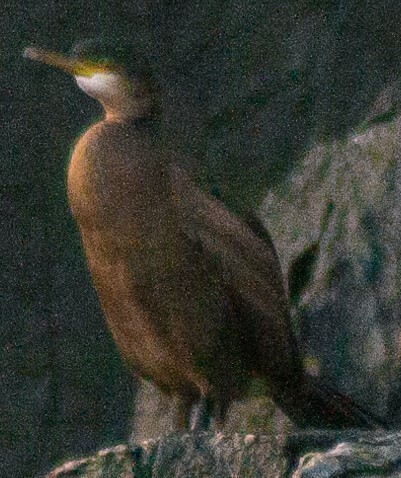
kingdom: Animalia
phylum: Chordata
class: Aves
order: Suliformes
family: Phalacrocoracidae
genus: Phalacrocorax
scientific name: Phalacrocorax aristotelis
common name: European shag
